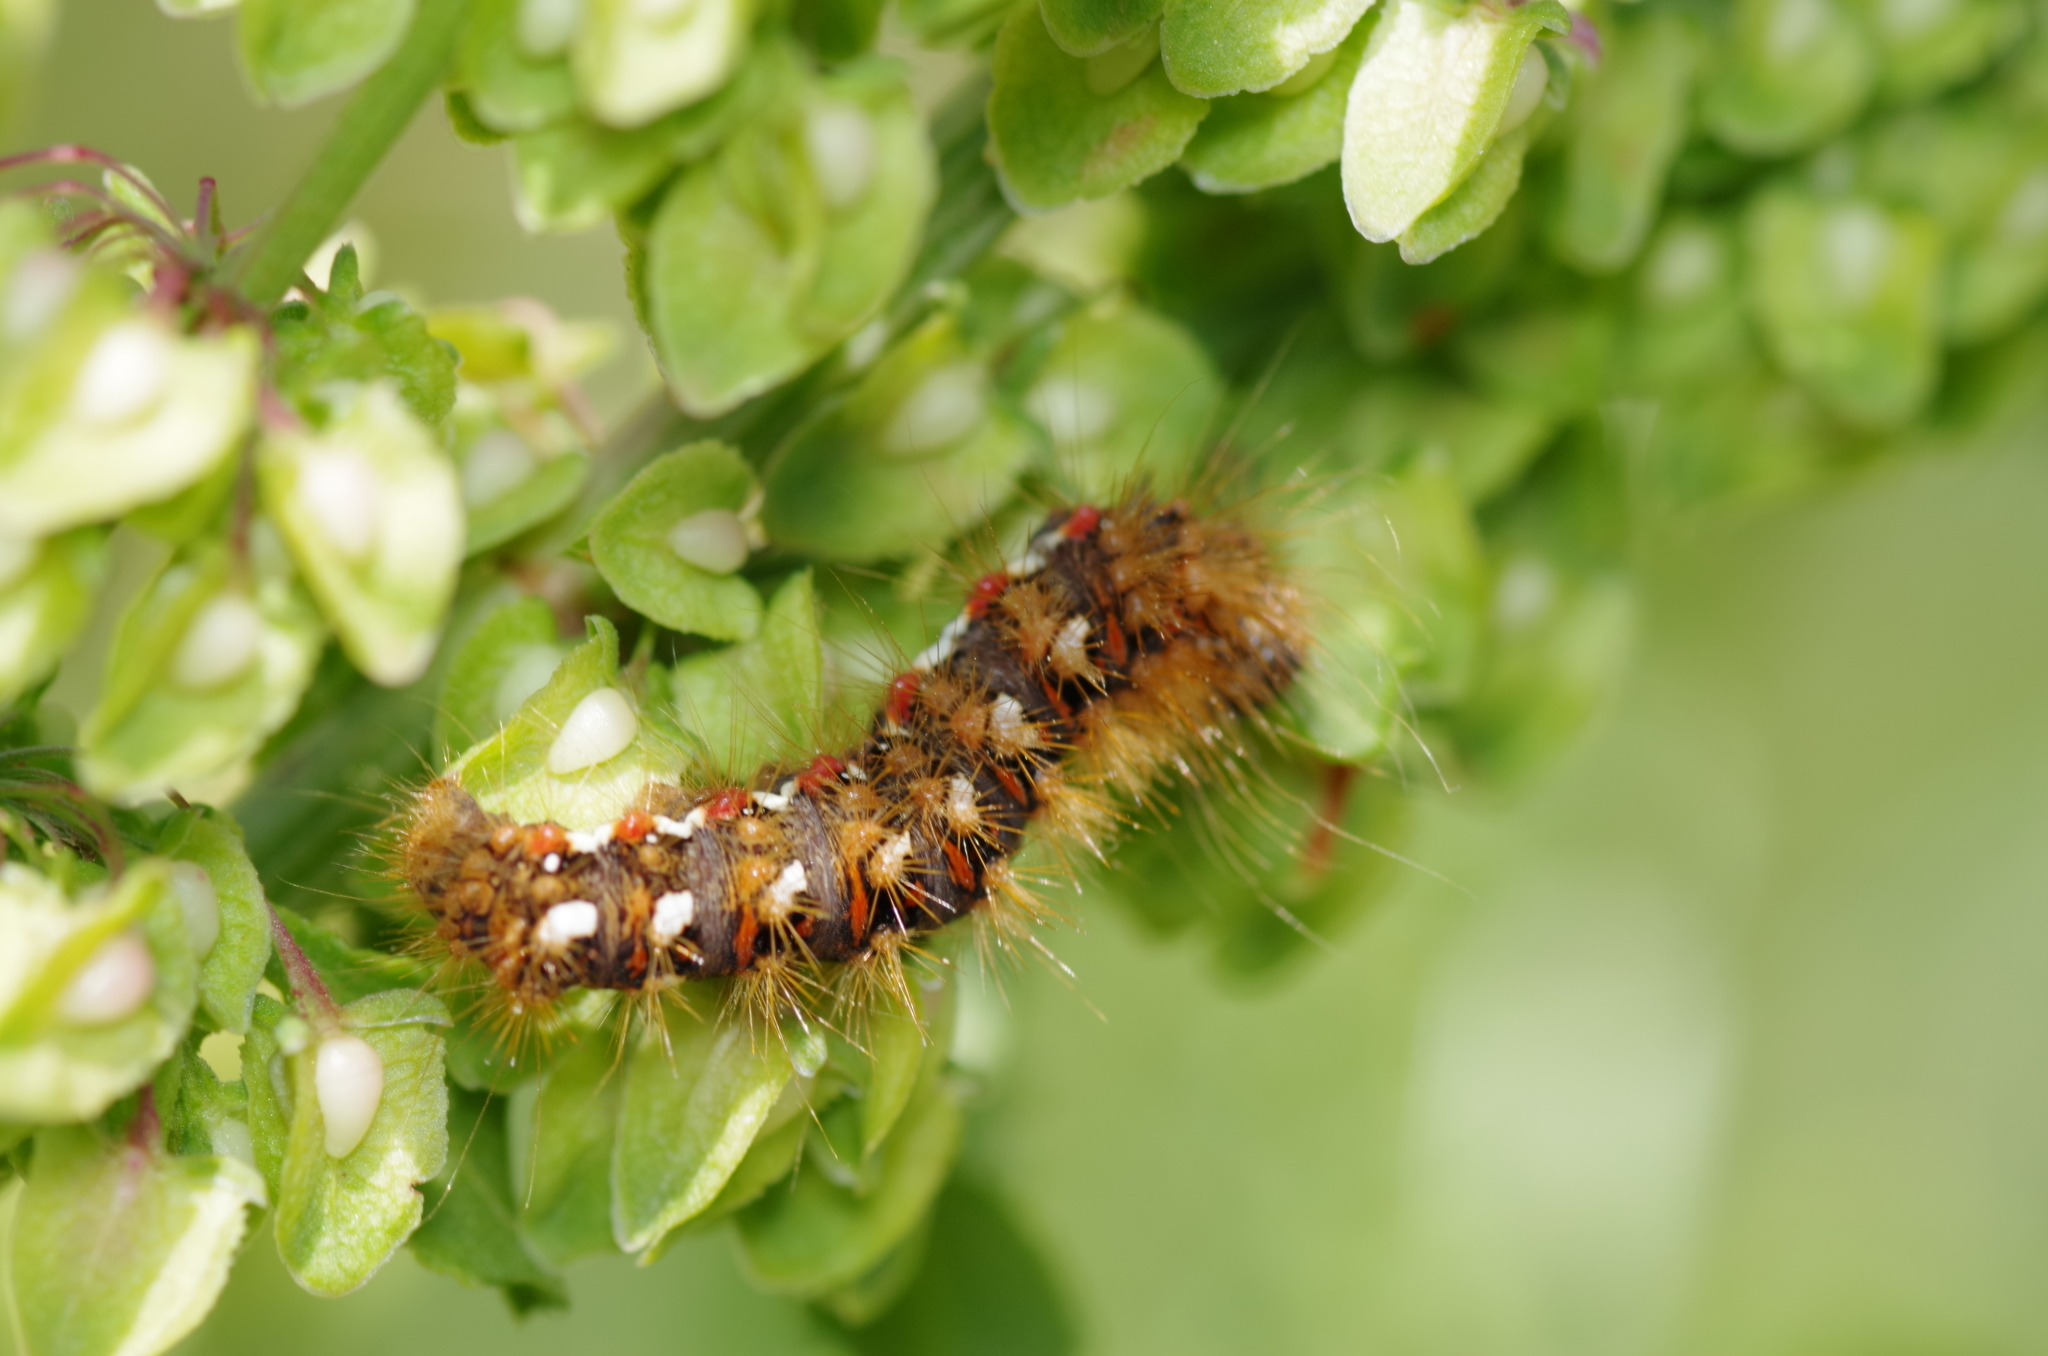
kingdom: Animalia
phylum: Arthropoda
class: Insecta
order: Lepidoptera
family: Noctuidae
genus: Acronicta
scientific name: Acronicta rumicis
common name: Knot grass
